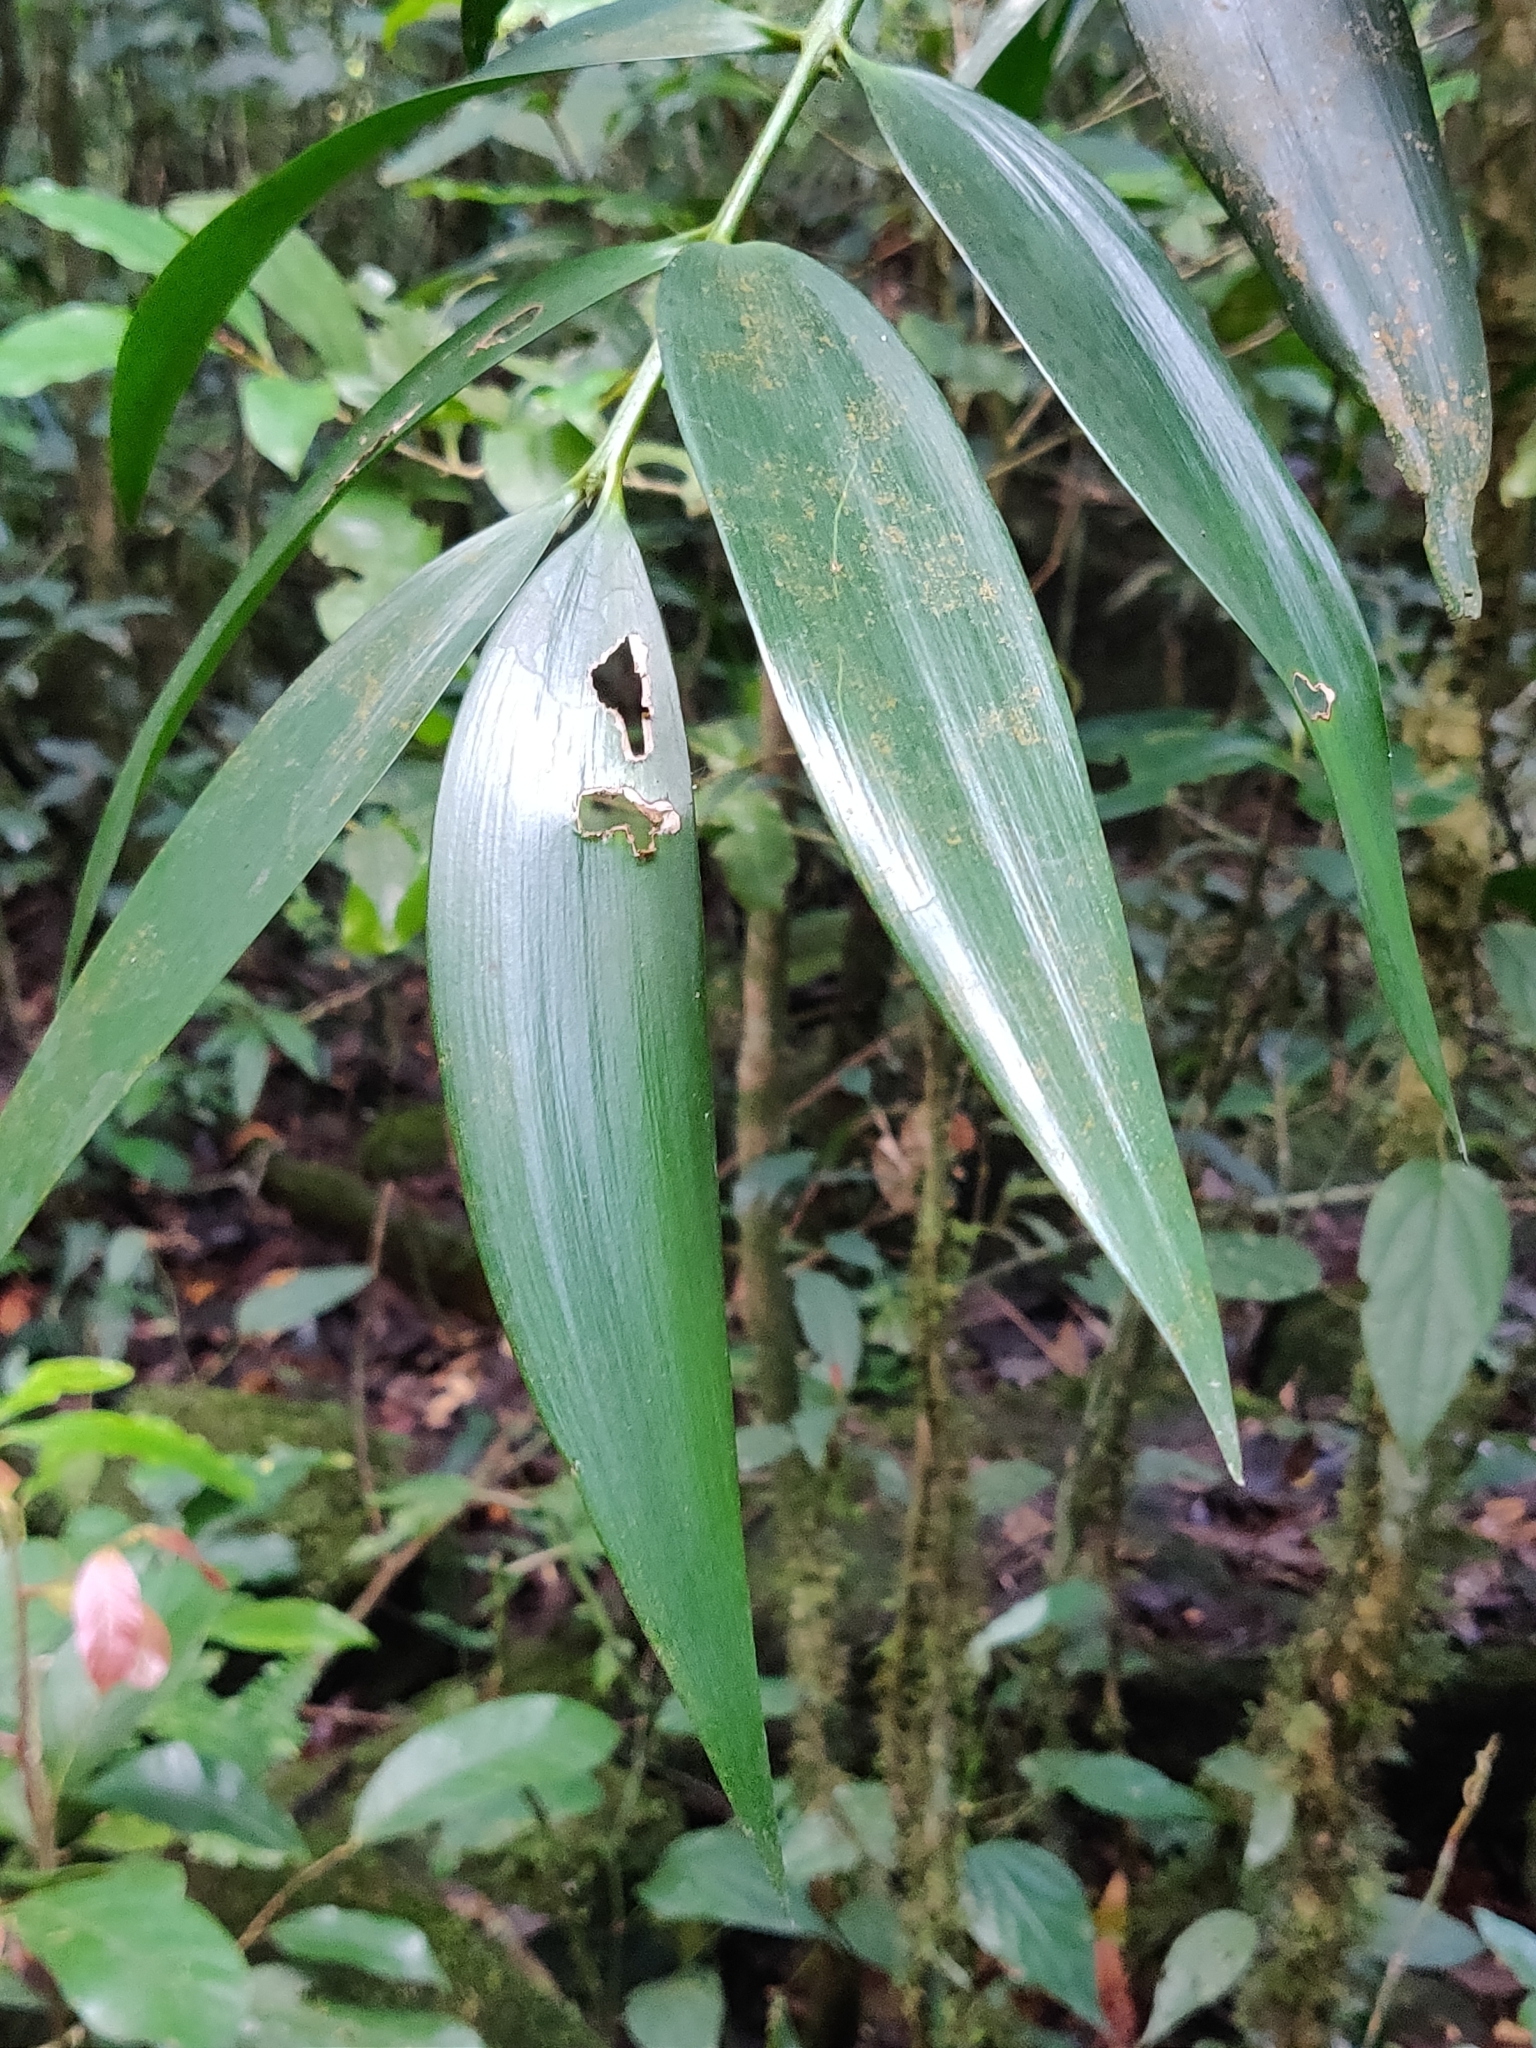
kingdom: Plantae
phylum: Tracheophyta
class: Pinopsida
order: Pinales
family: Podocarpaceae
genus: Nageia
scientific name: Nageia wallichiana
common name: Brown's-pine
